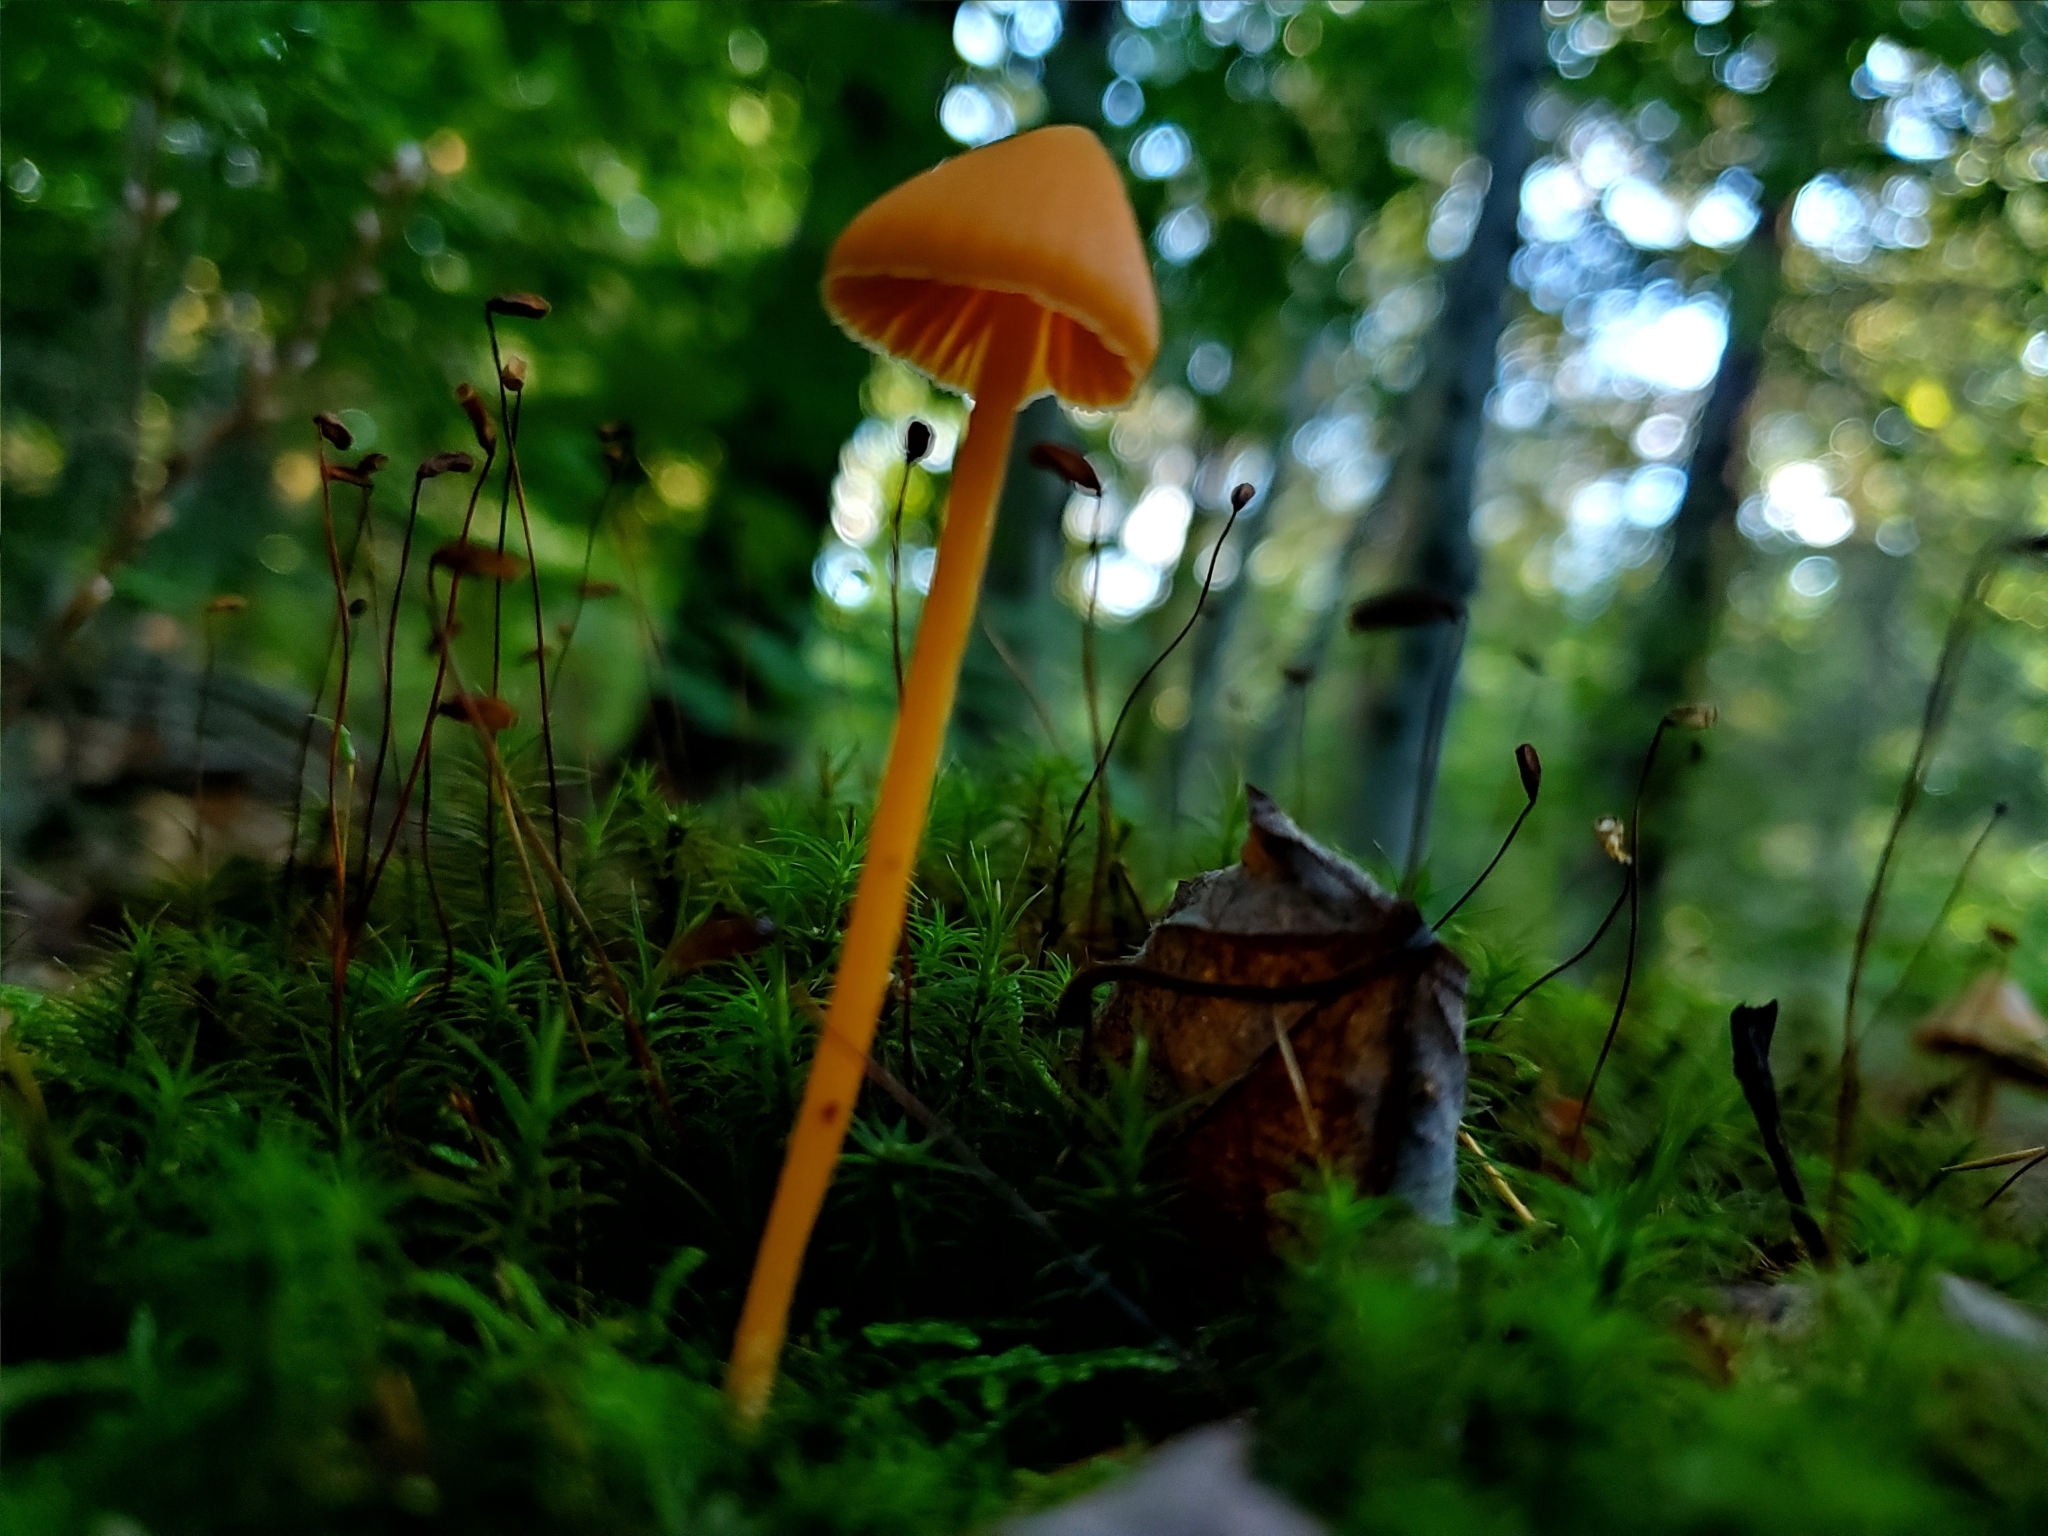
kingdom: Fungi
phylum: Basidiomycota
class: Agaricomycetes
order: Agaricales
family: Entolomataceae
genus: Entoloma
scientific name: Entoloma quadratum
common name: Salmon pinkgill
